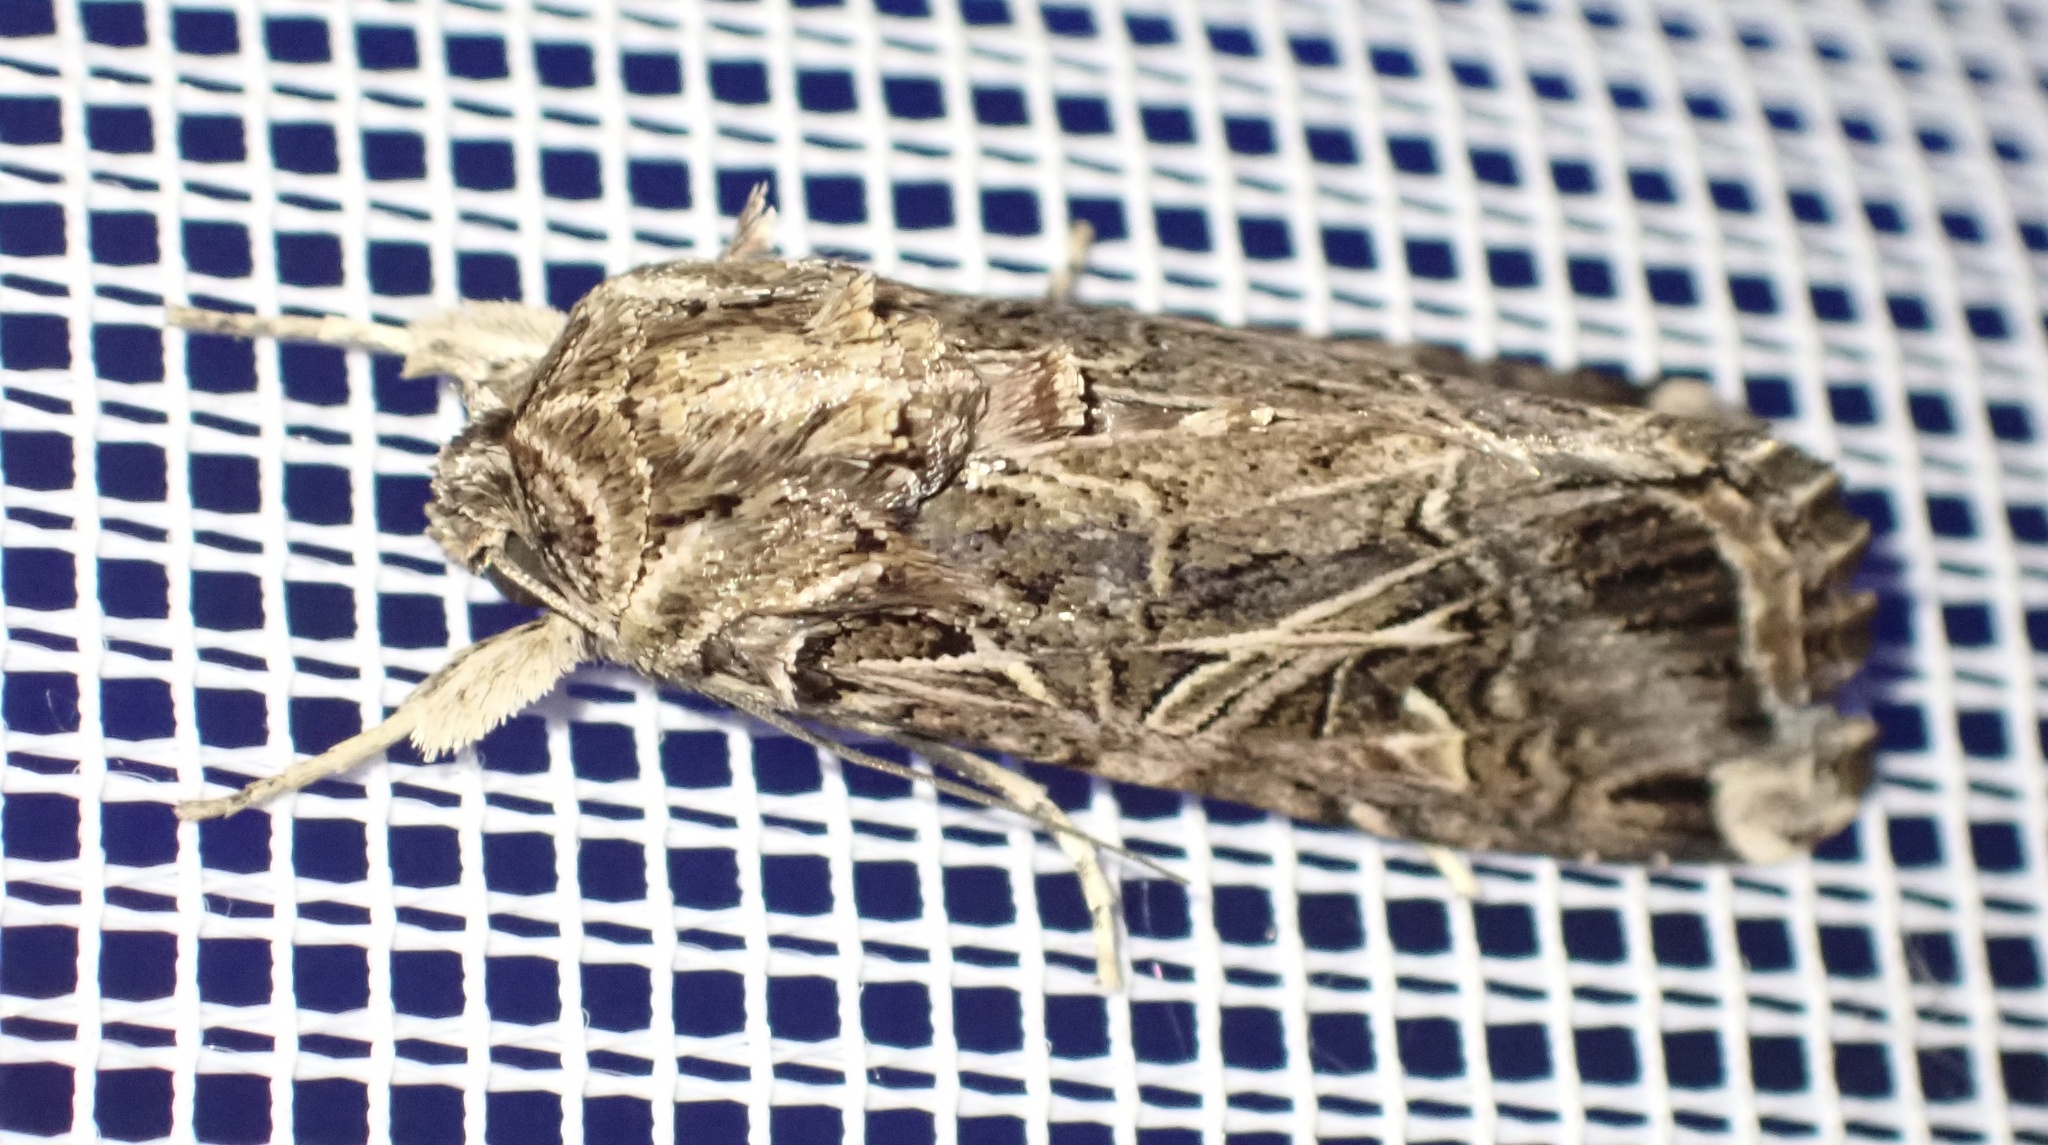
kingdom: Animalia
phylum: Arthropoda
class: Insecta
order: Lepidoptera
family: Noctuidae
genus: Spodoptera
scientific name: Spodoptera litura
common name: Asian cotton leafworm
